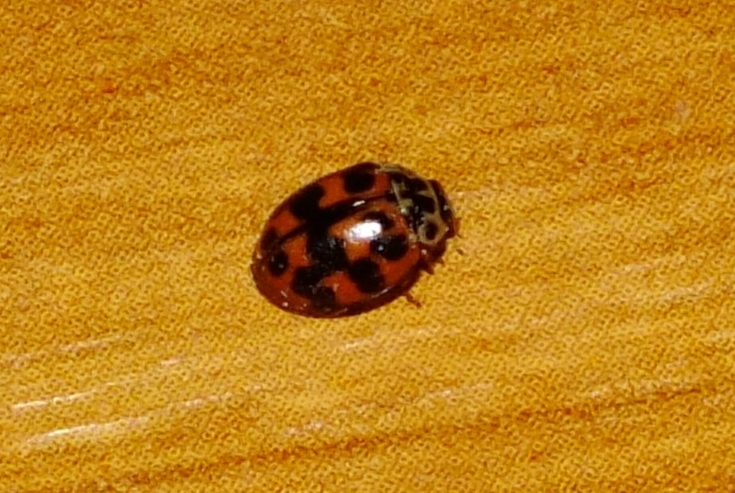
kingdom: Animalia
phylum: Arthropoda
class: Insecta
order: Coleoptera
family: Coccinellidae
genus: Oenopia
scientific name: Oenopia conglobata
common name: Ladybird beetle
